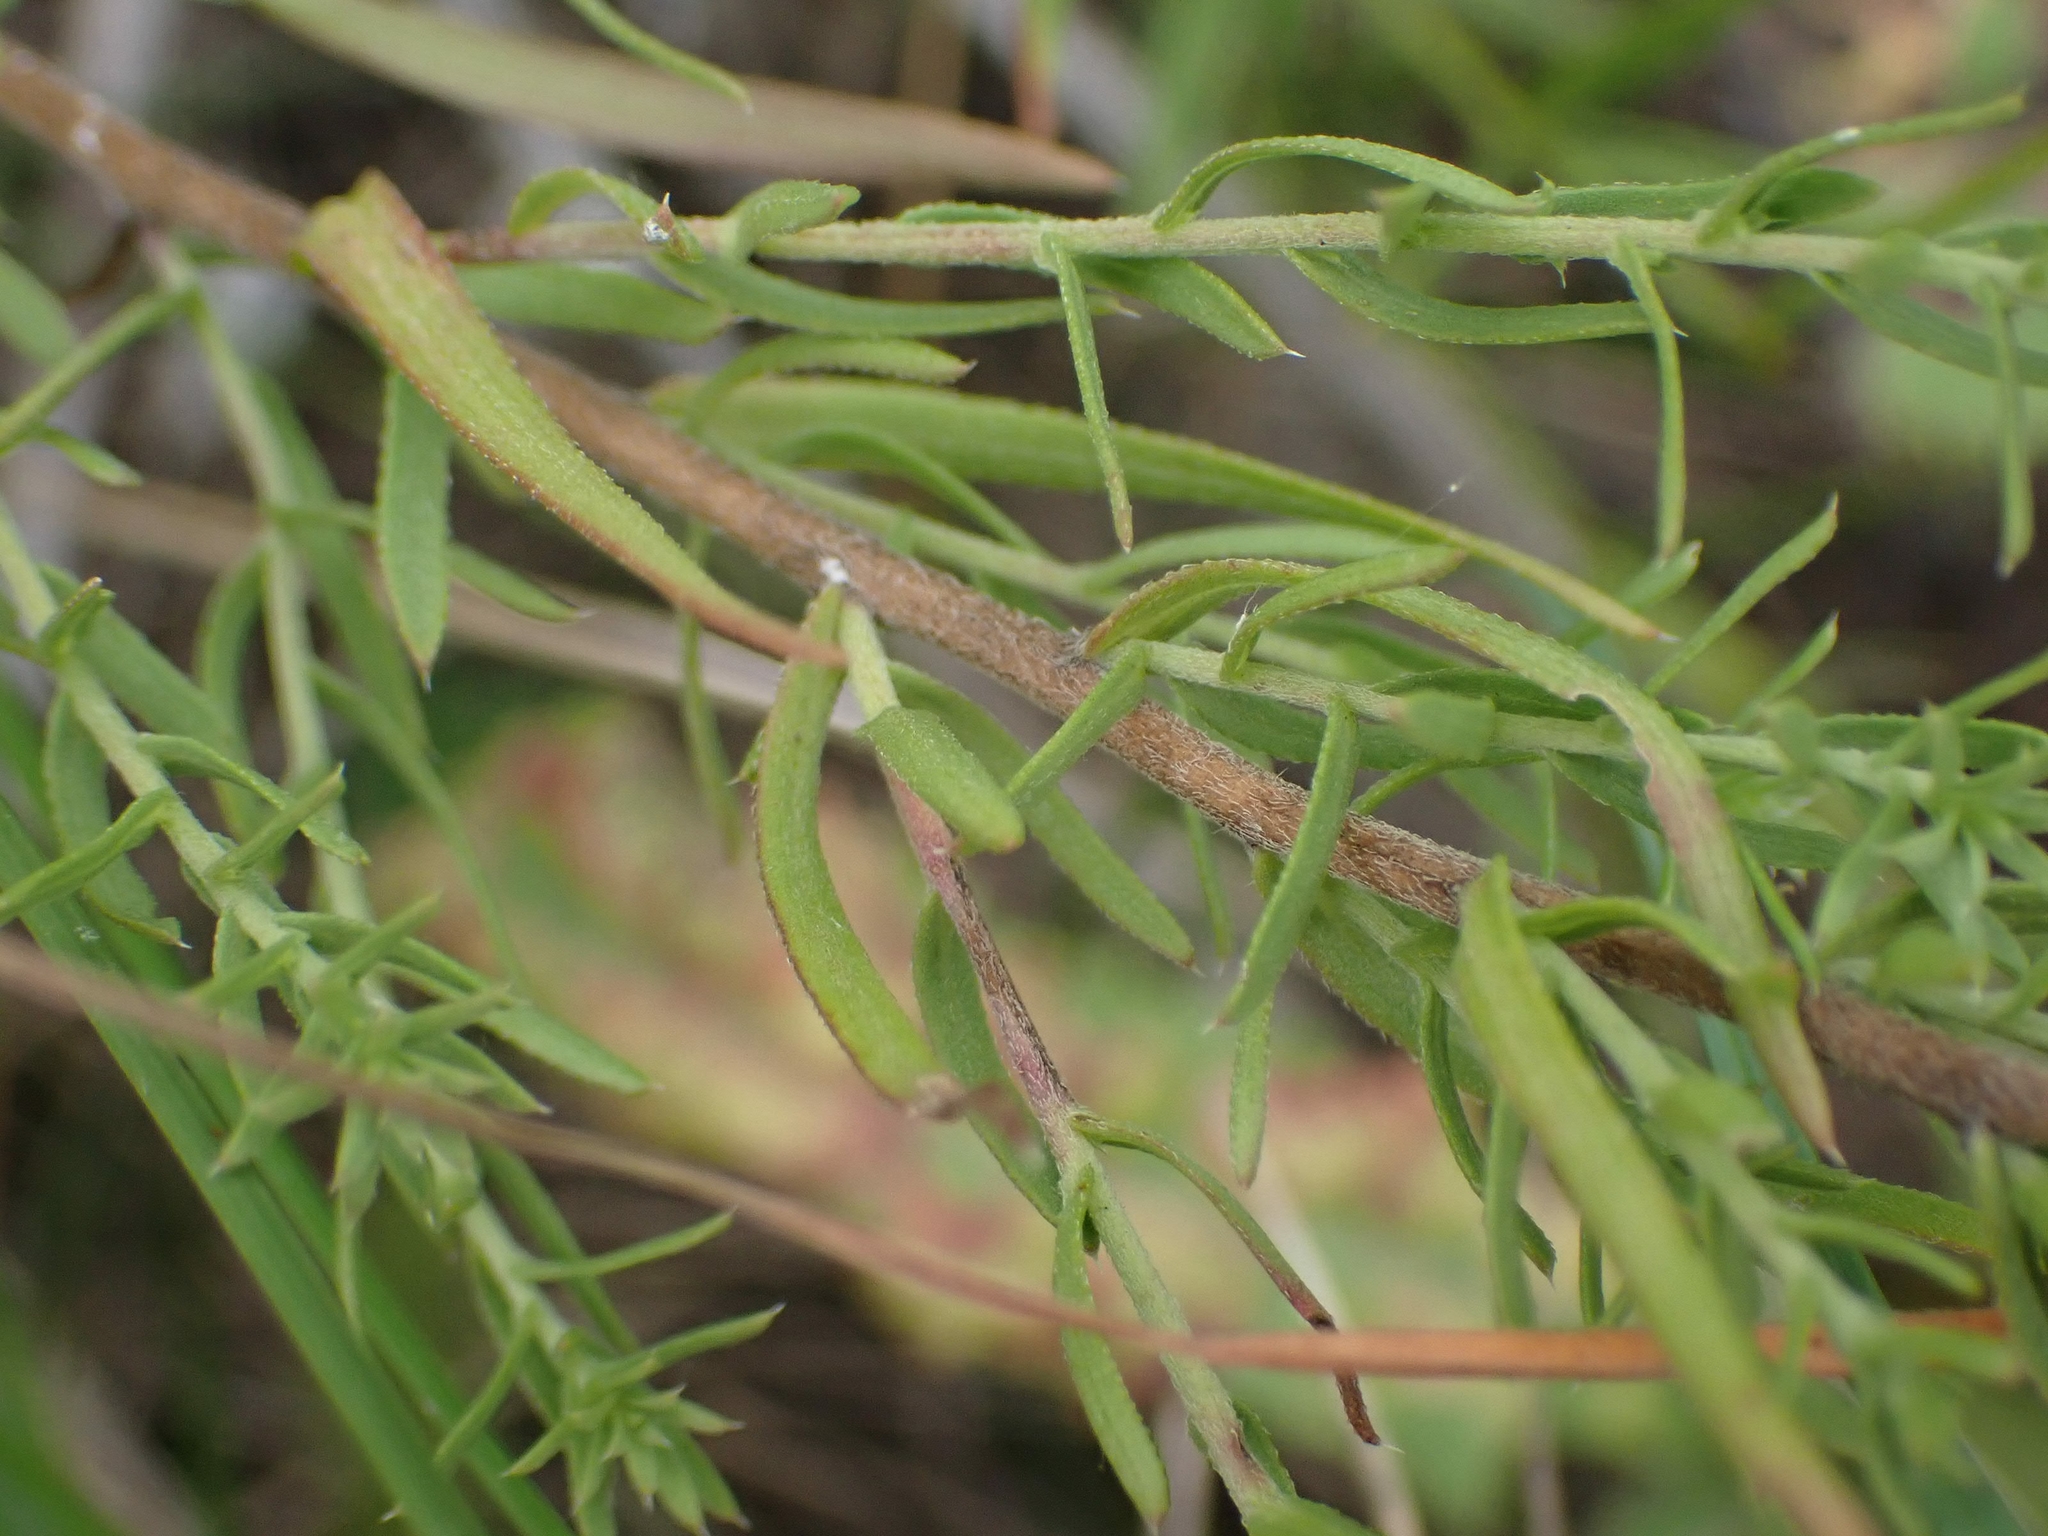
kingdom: Plantae
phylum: Tracheophyta
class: Magnoliopsida
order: Asterales
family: Asteraceae
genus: Symphyotrichum
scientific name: Symphyotrichum ericoides
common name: Heath aster
